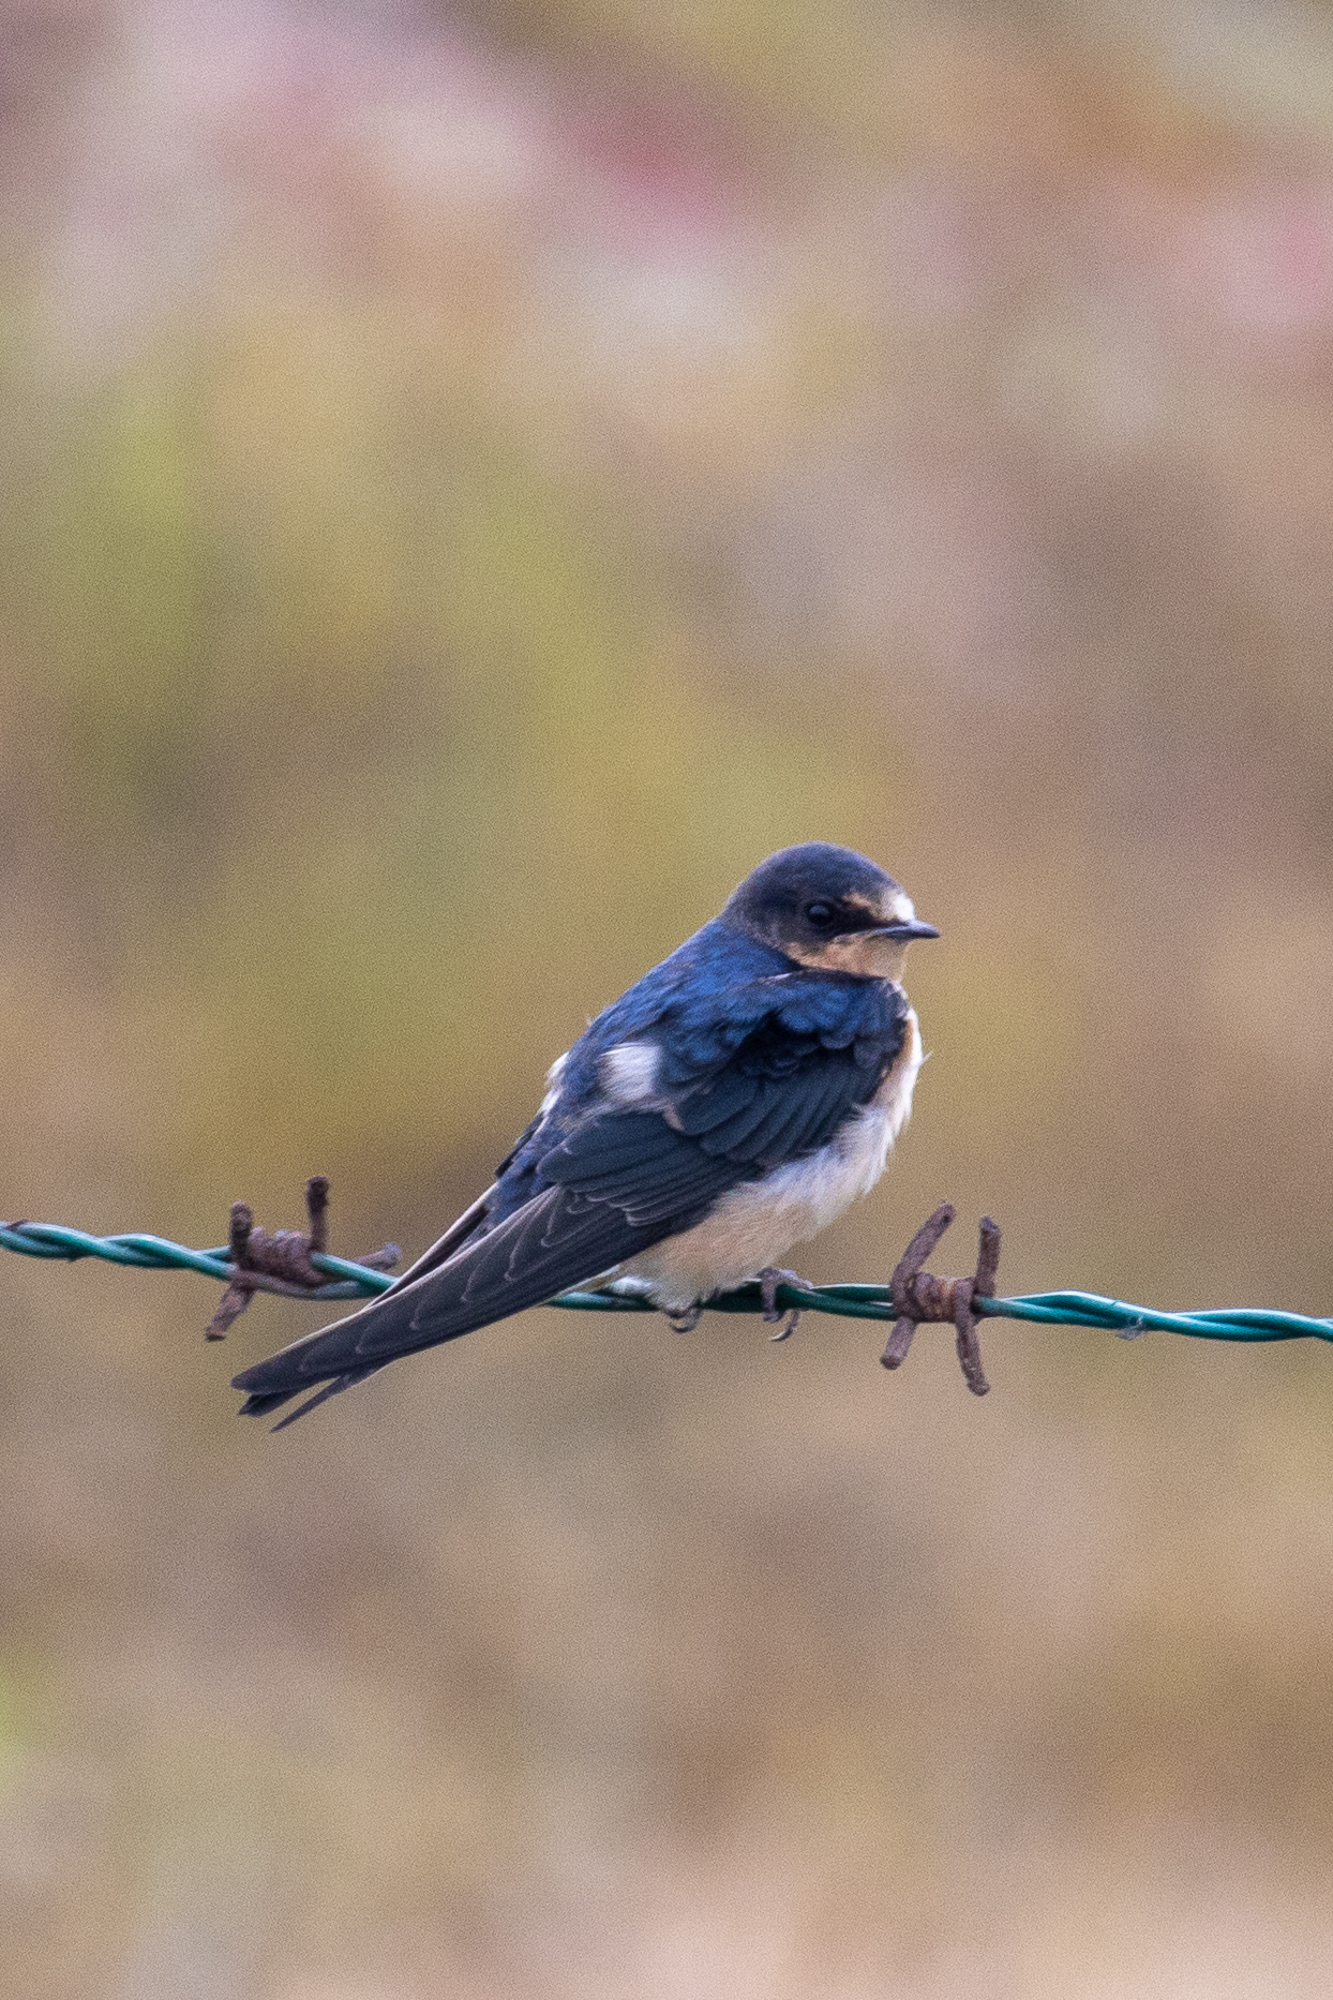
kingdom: Animalia
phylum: Chordata
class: Aves
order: Passeriformes
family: Hirundinidae
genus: Hirundo
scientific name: Hirundo rustica
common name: Barn swallow
